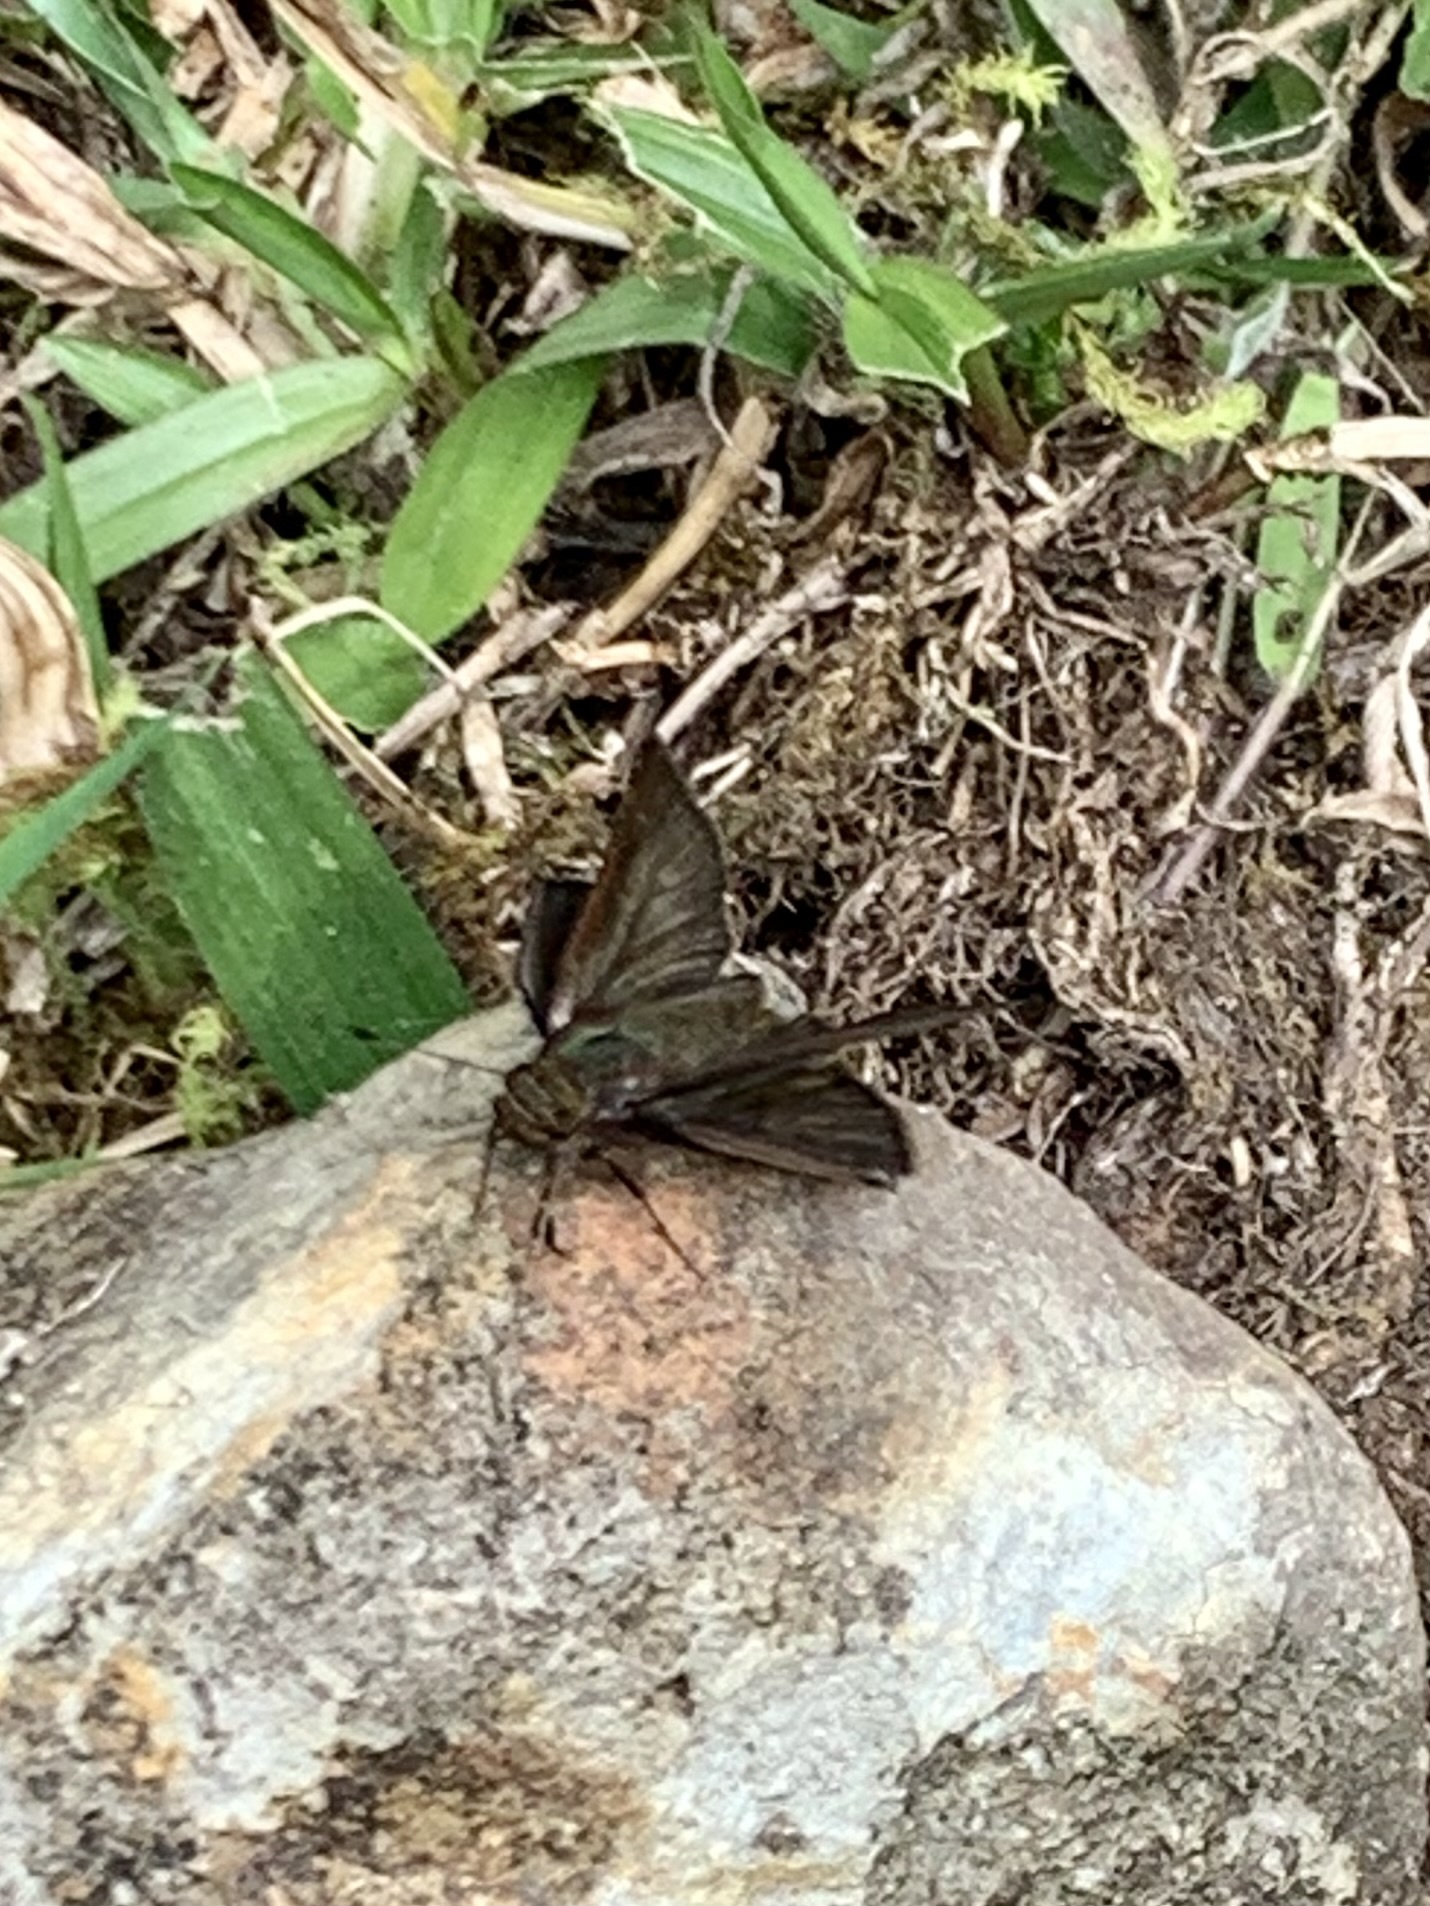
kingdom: Animalia
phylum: Arthropoda
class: Insecta
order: Lepidoptera
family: Hesperiidae
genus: Lon
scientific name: Lon inimica
